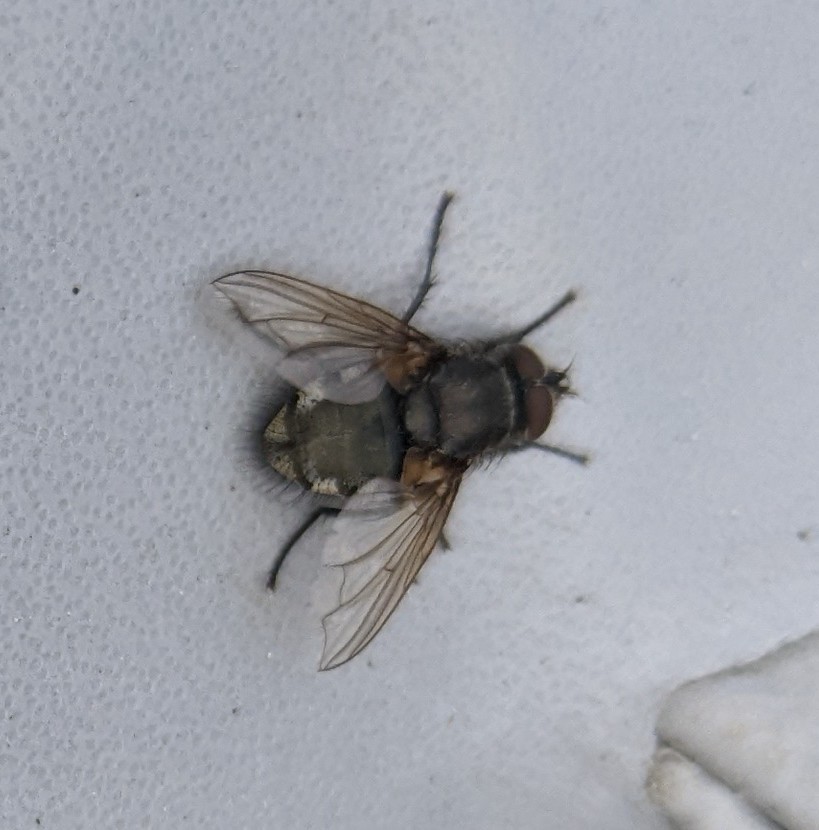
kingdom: Animalia
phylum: Arthropoda
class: Insecta
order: Diptera
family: Polleniidae
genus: Pollenia
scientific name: Pollenia
